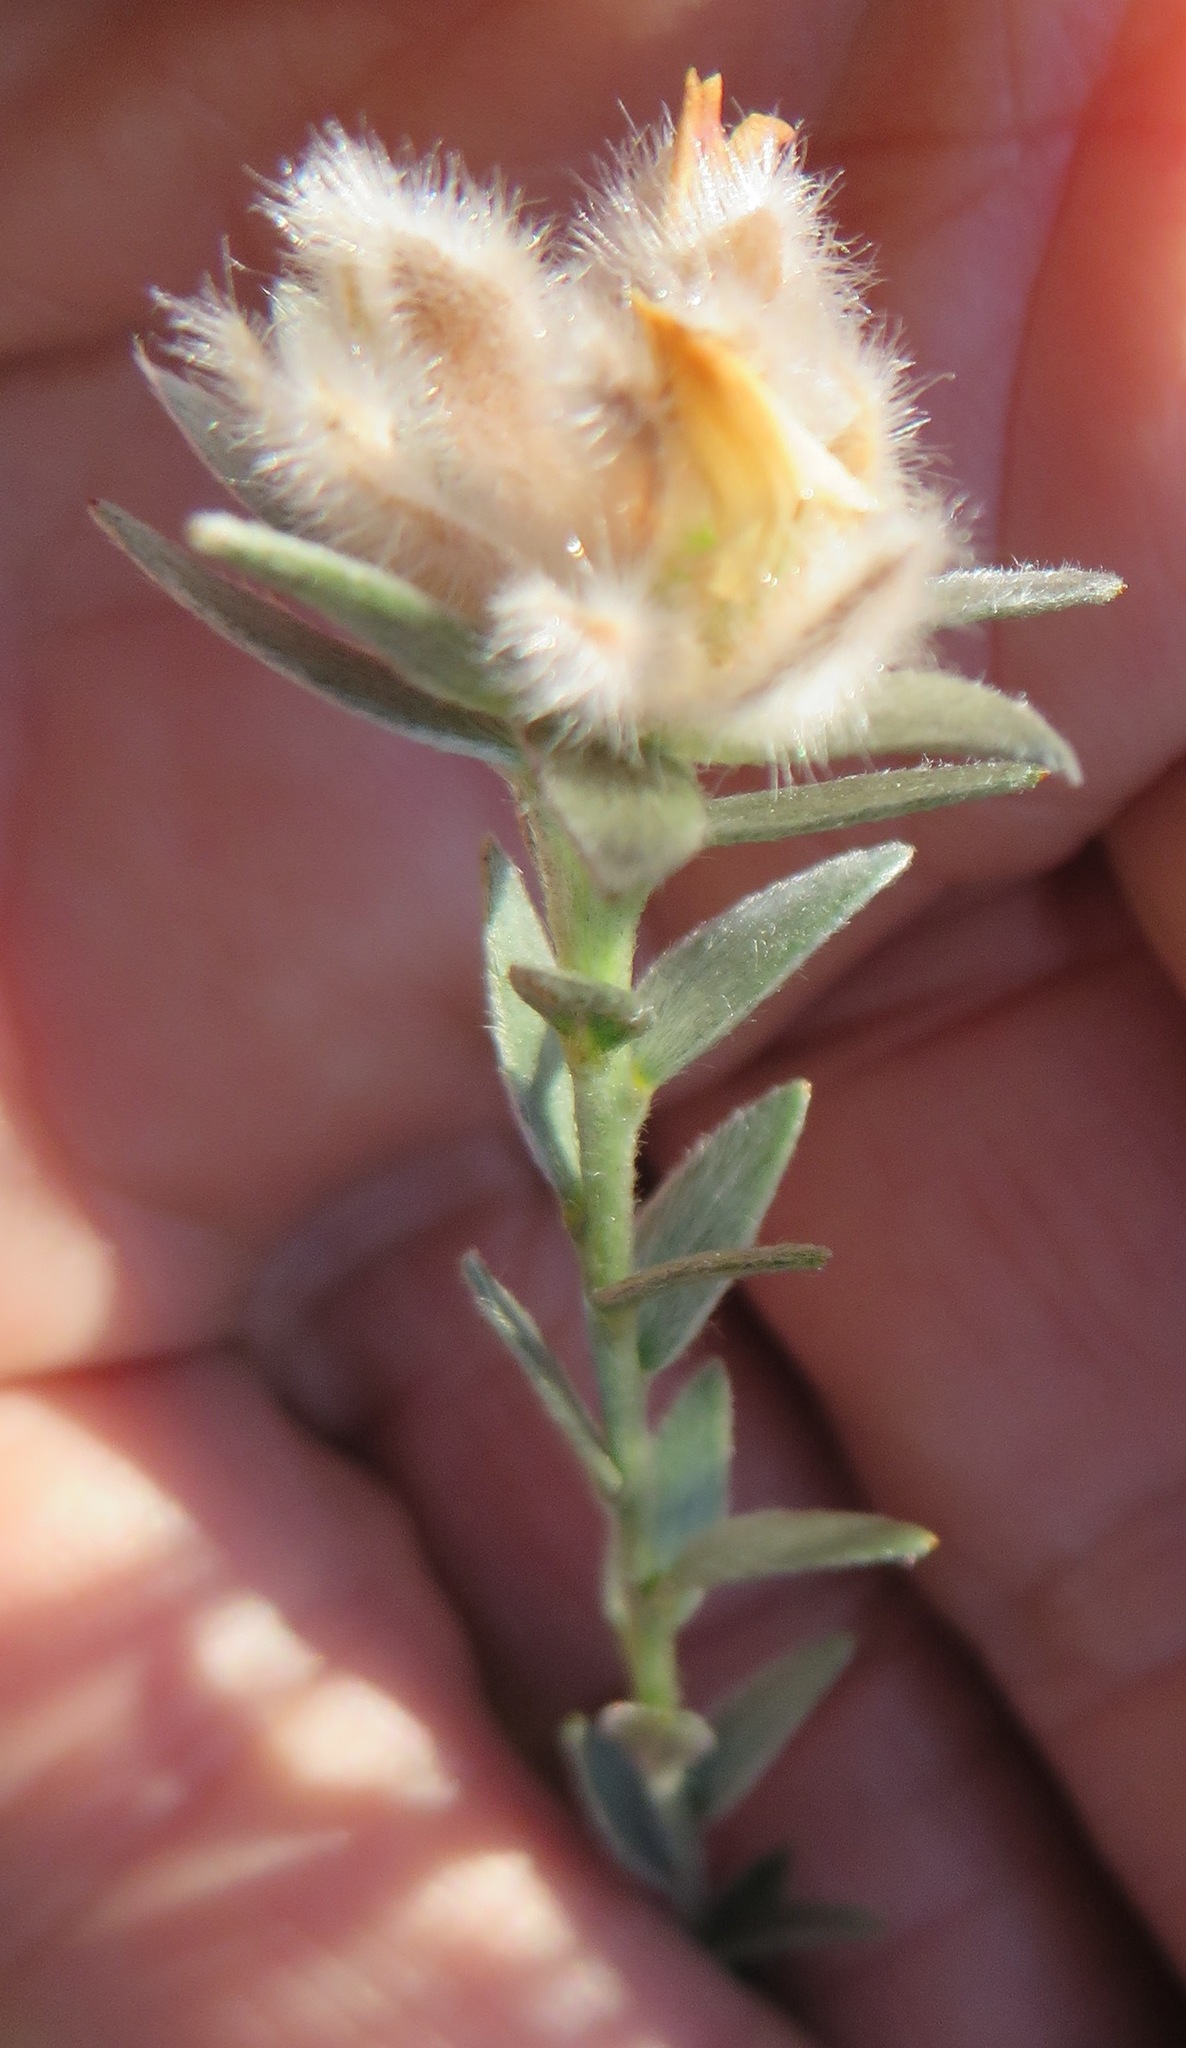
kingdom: Plantae
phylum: Tracheophyta
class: Magnoliopsida
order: Fabales
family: Fabaceae
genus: Amphithalea
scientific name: Amphithalea tomentosa
